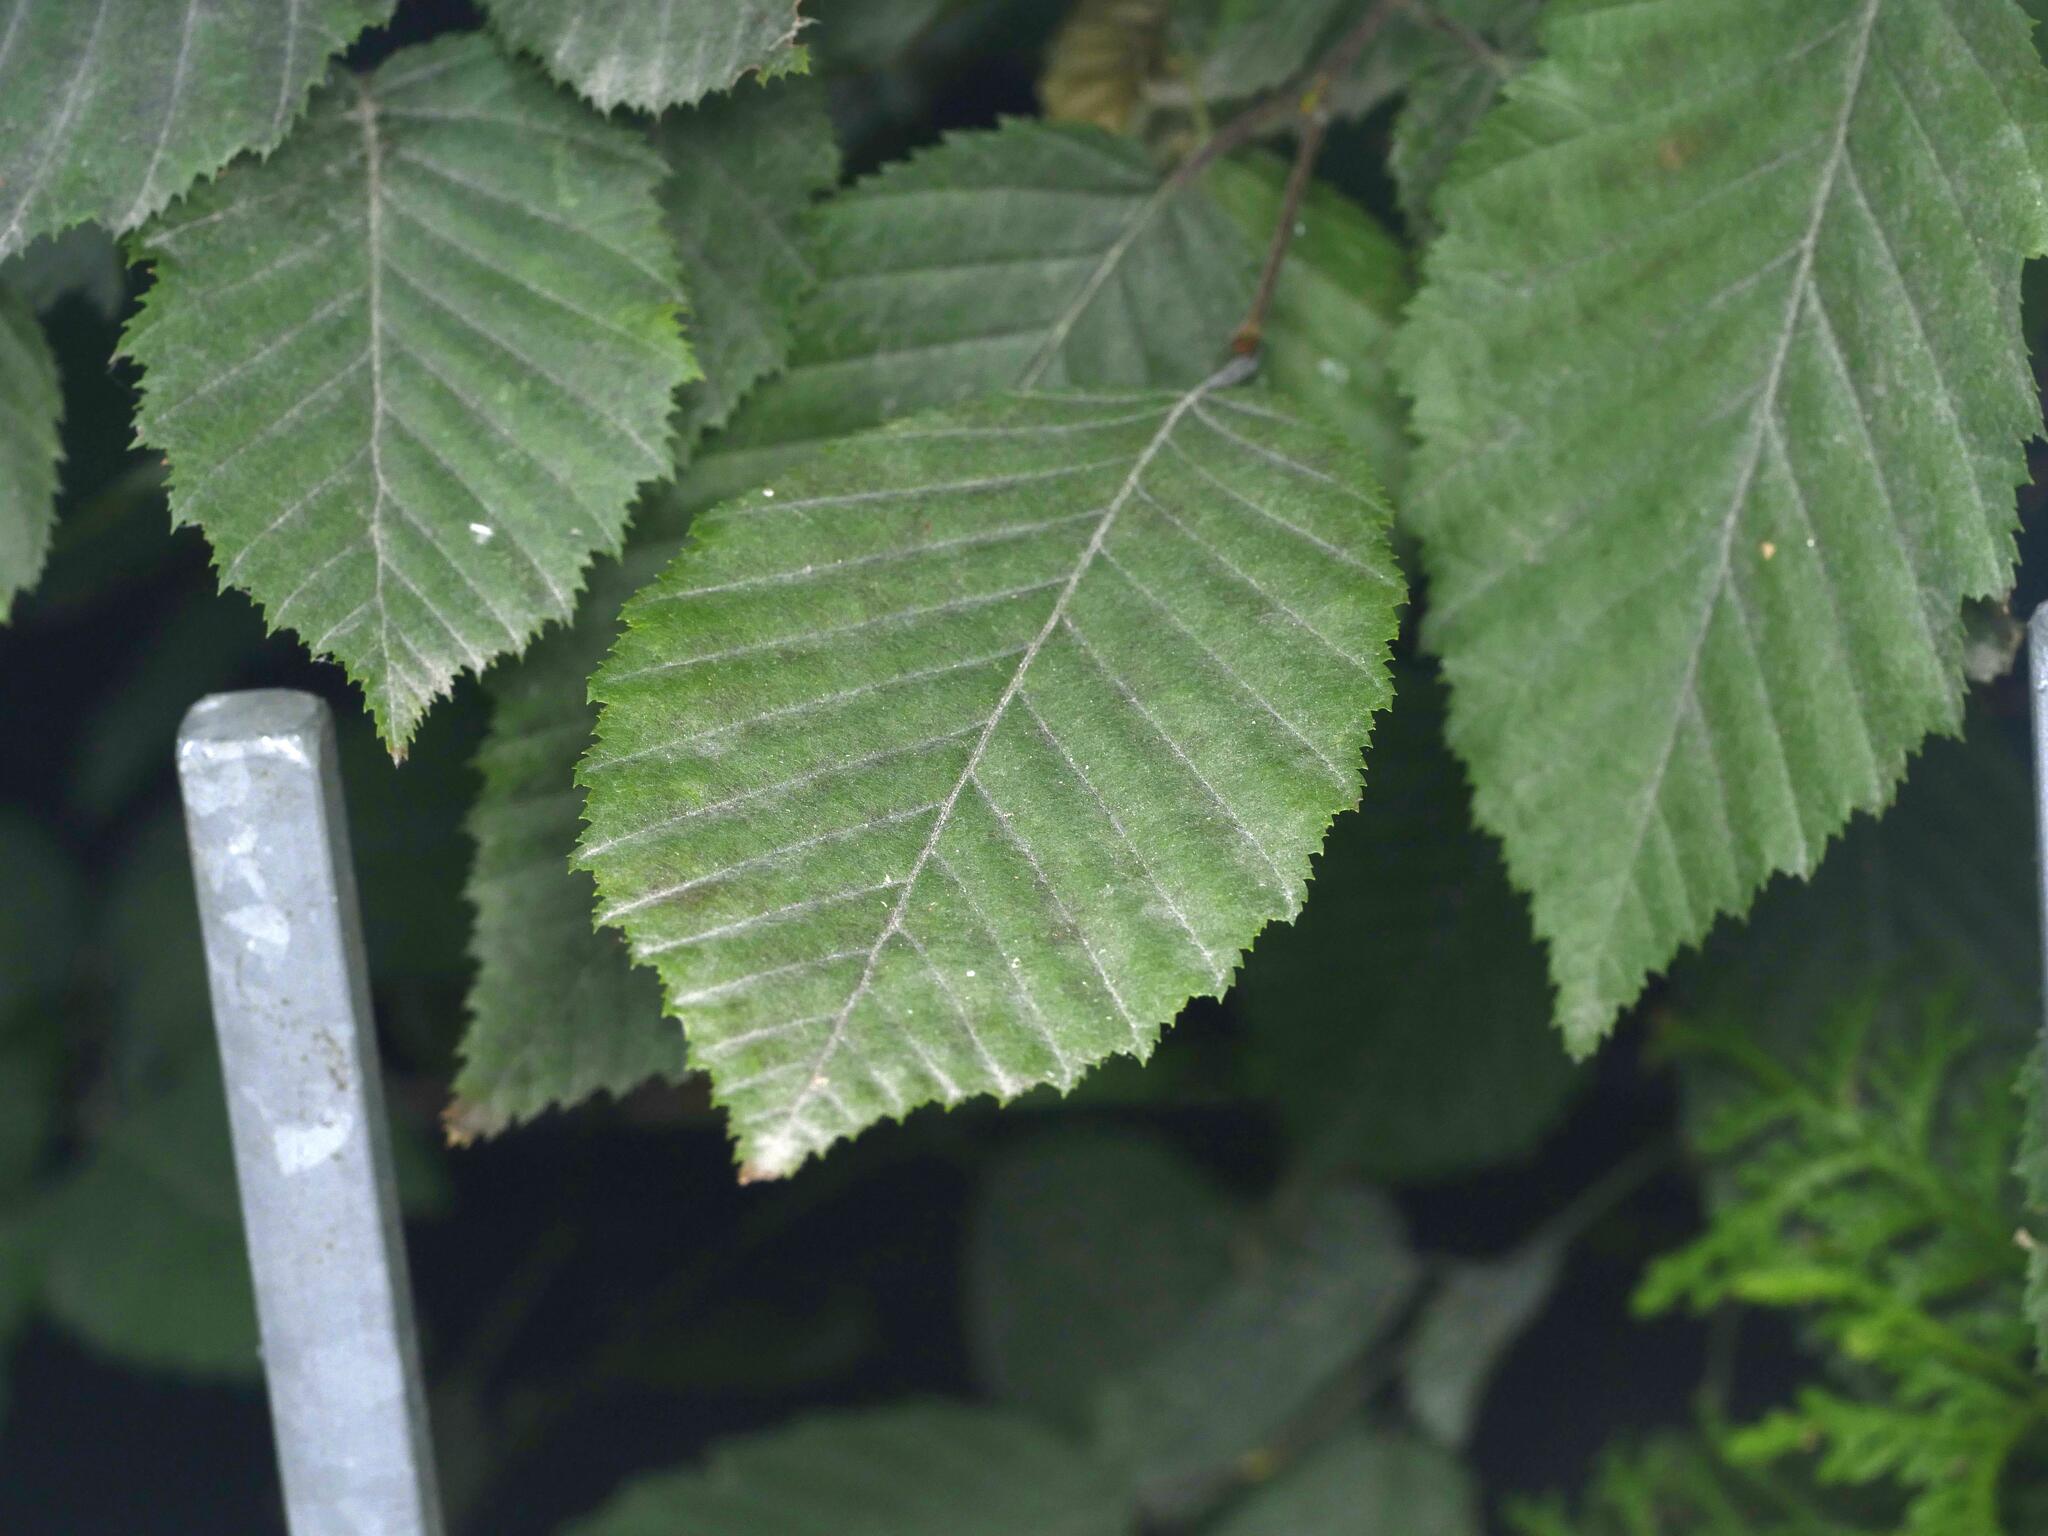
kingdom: Plantae
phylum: Tracheophyta
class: Magnoliopsida
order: Fagales
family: Betulaceae
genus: Carpinus
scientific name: Carpinus betulus
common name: Hornbeam
